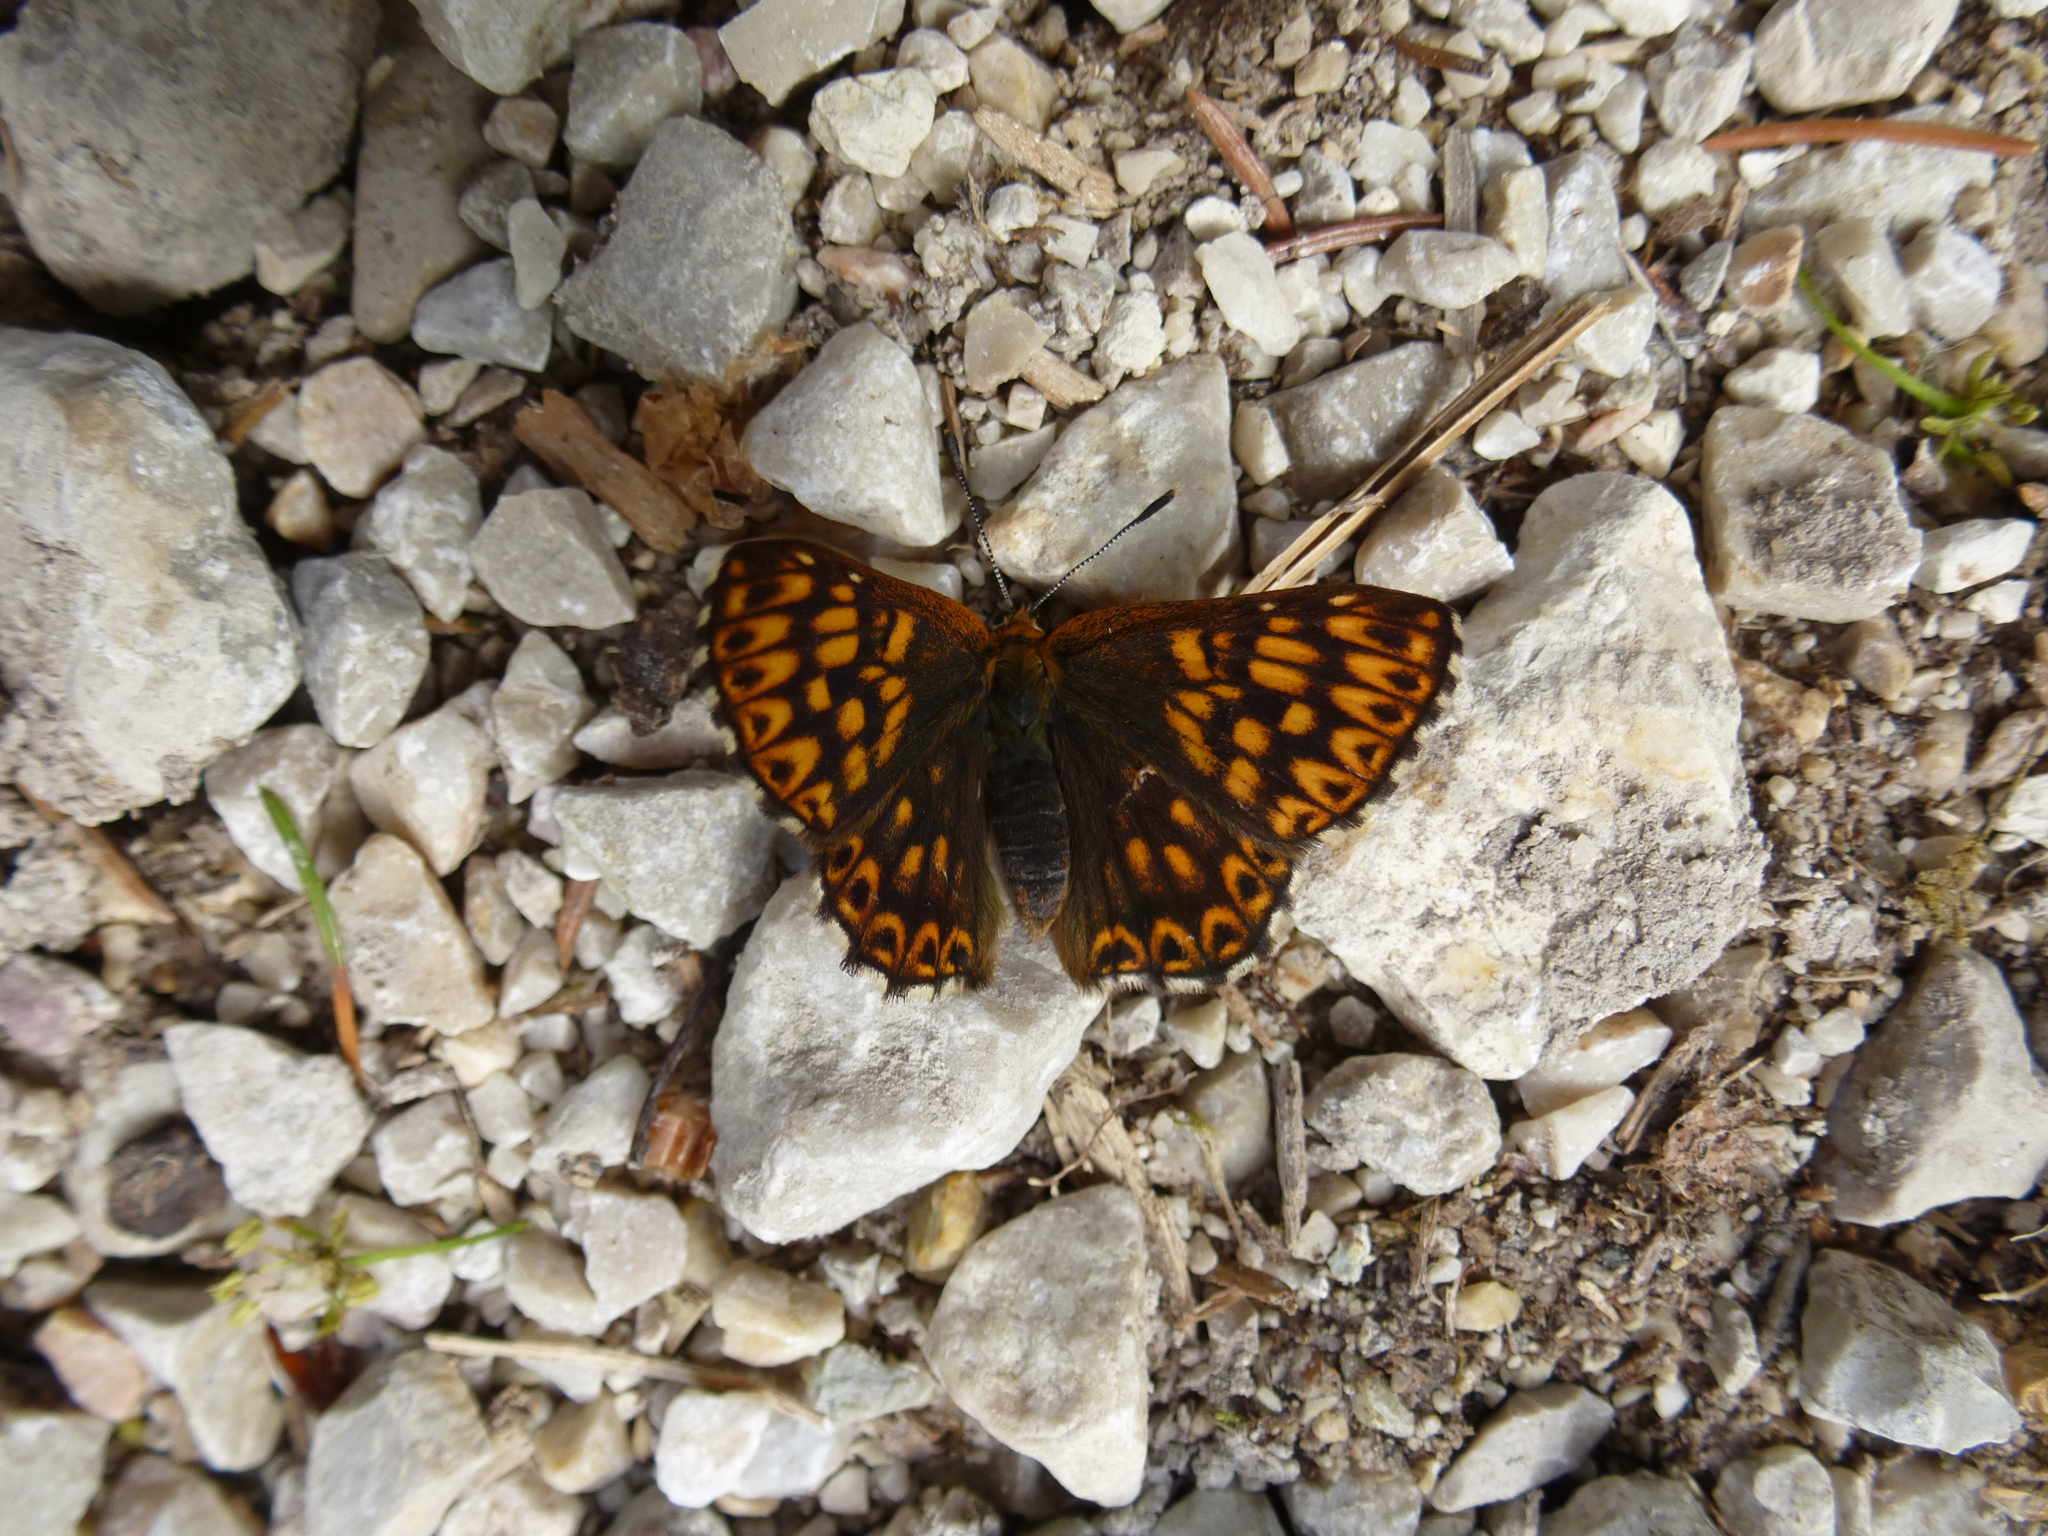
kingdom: Animalia
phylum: Arthropoda
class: Insecta
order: Lepidoptera
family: Riodinidae
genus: Hamearis
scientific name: Hamearis lucina
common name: Duke of burgundy fritillary
